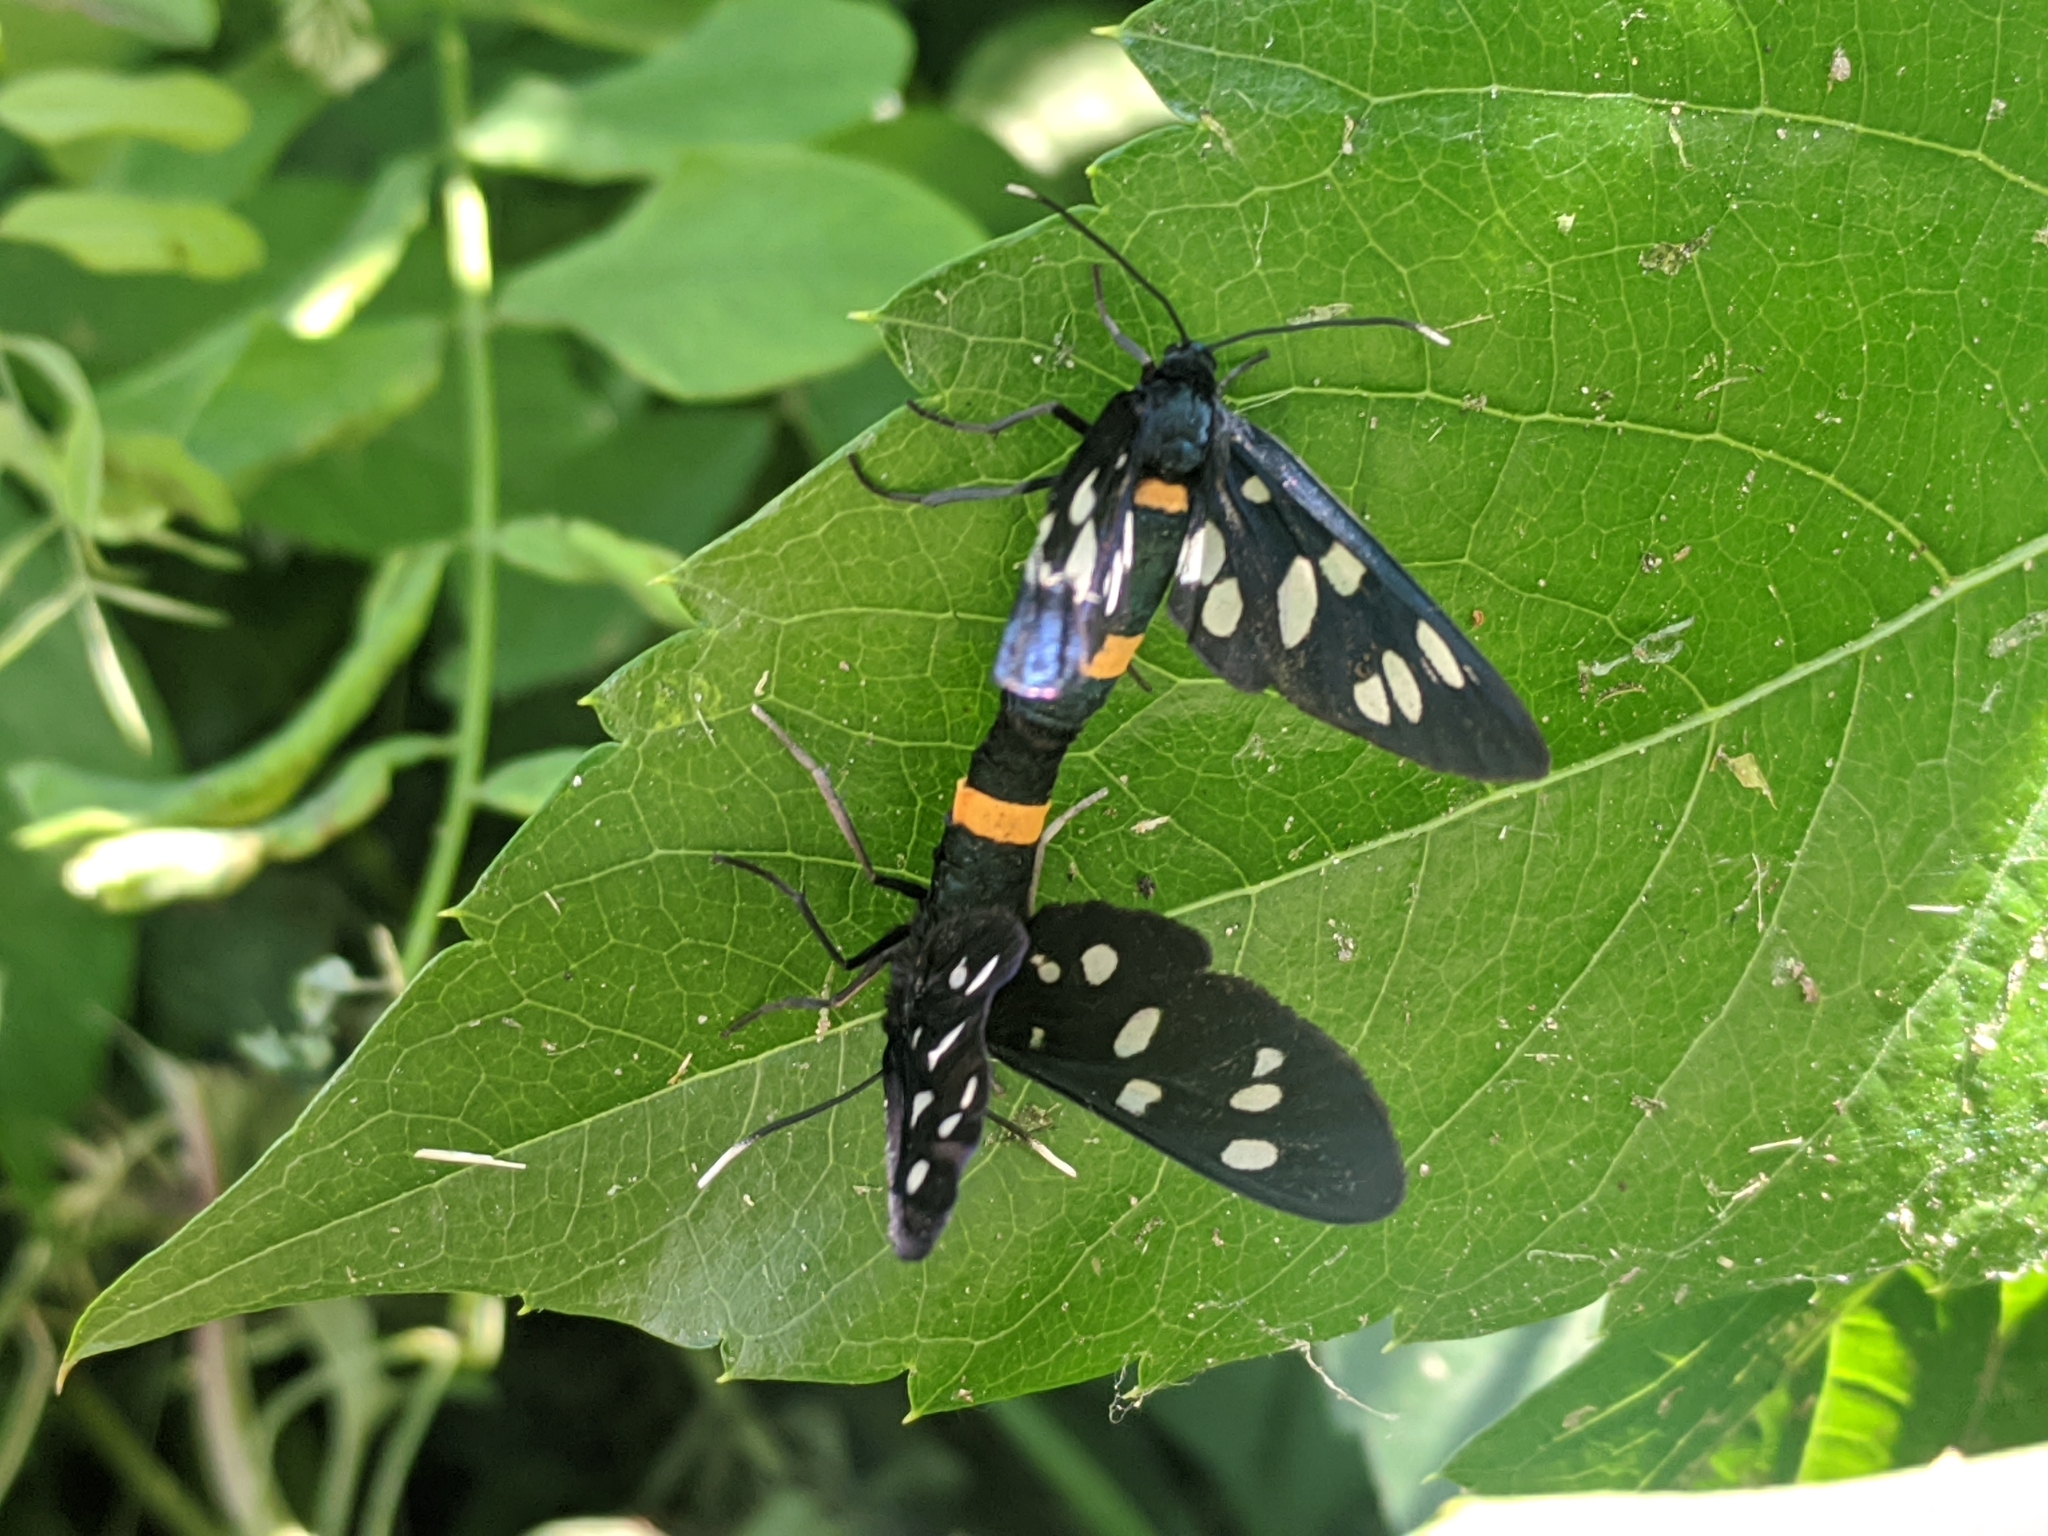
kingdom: Animalia
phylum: Arthropoda
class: Insecta
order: Lepidoptera
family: Erebidae
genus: Amata
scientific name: Amata phegea
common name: Nine-spotted
